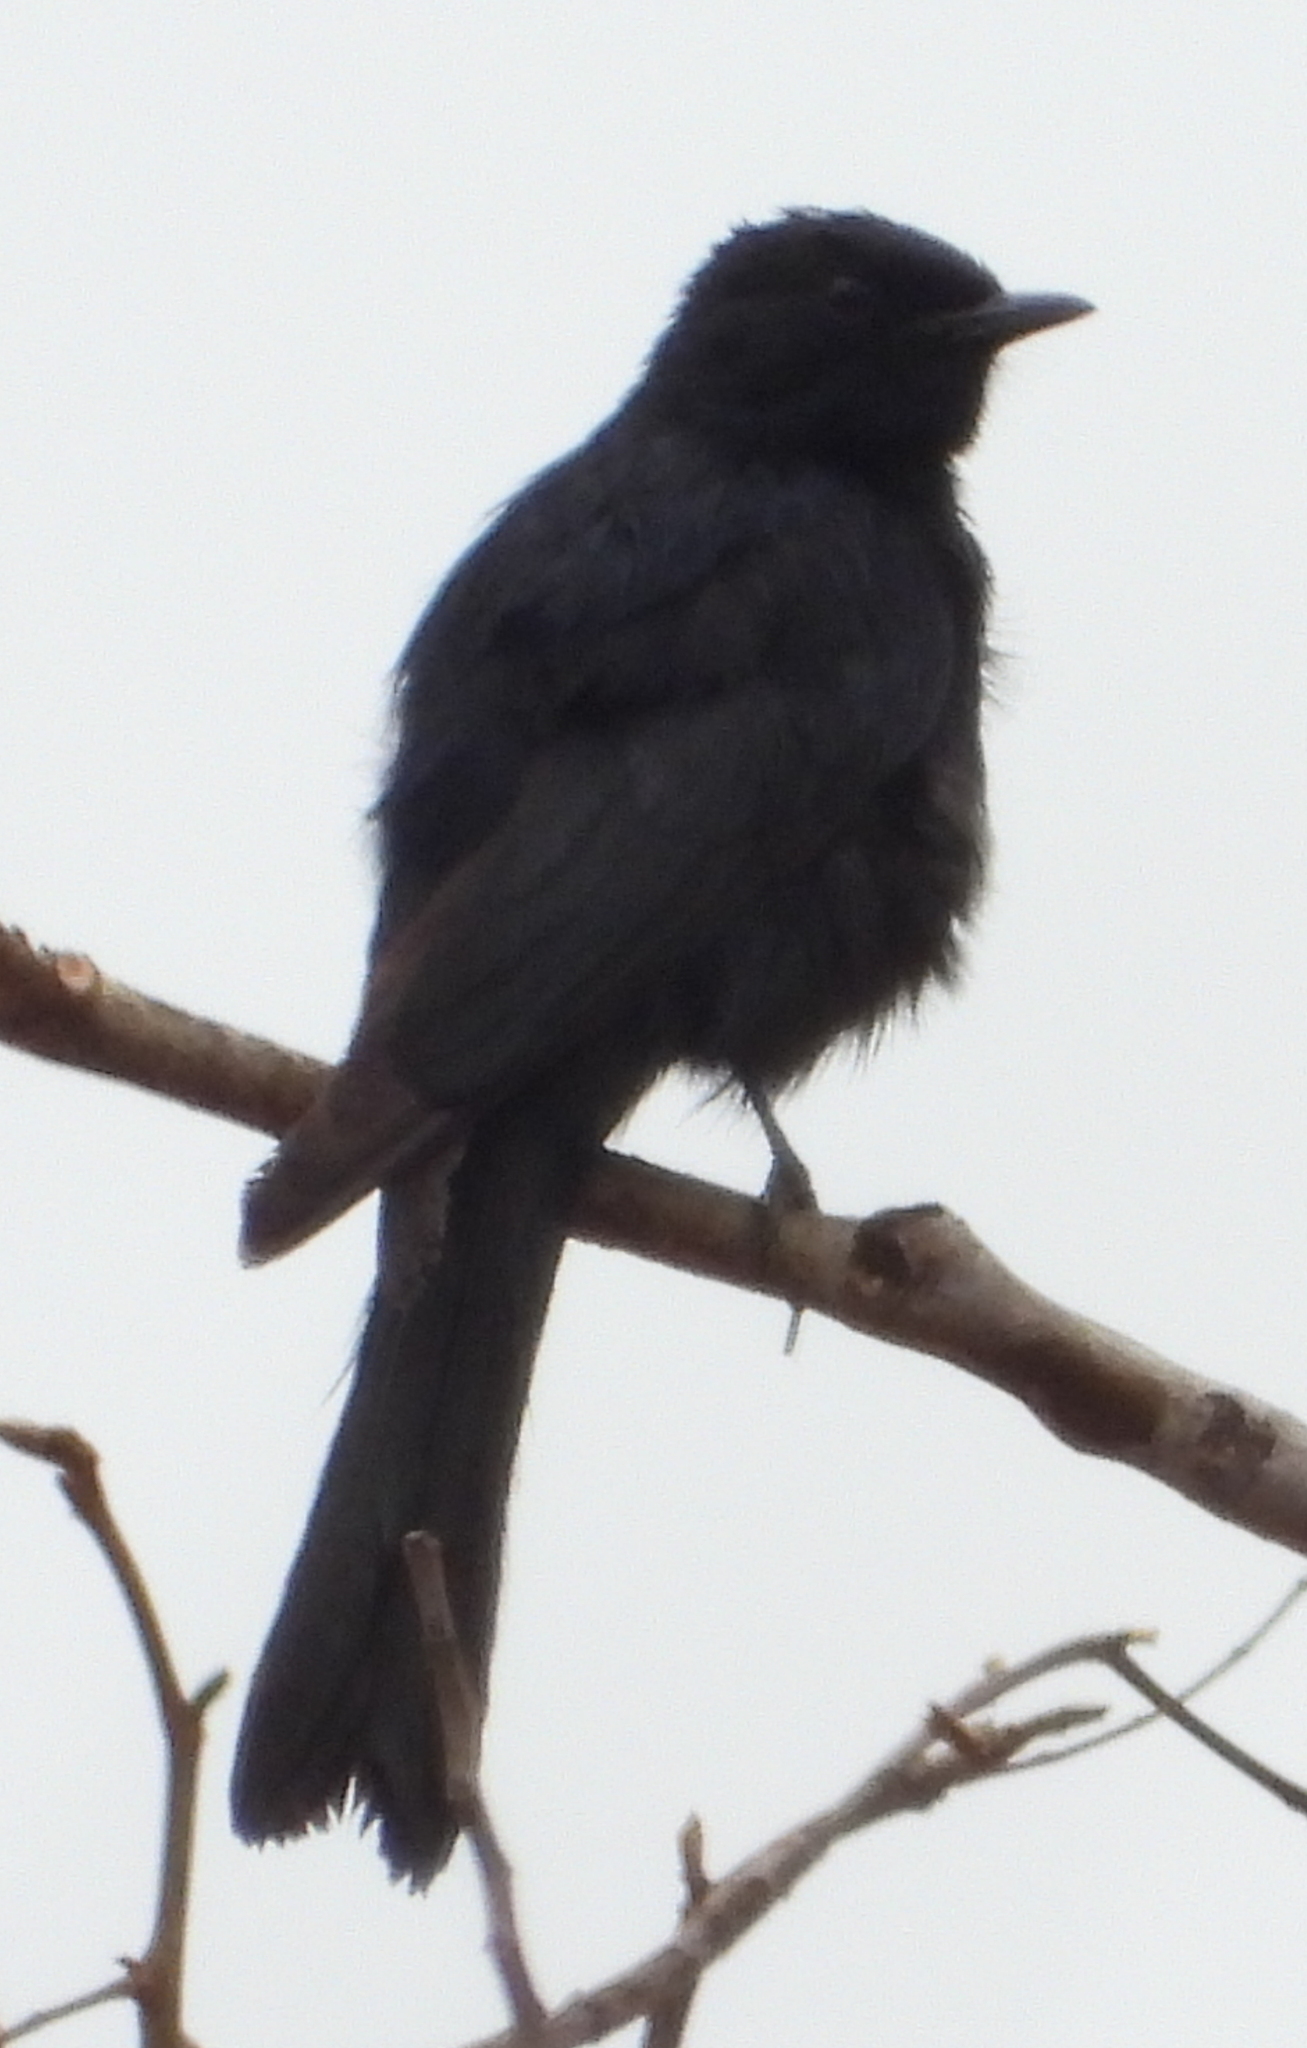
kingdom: Animalia
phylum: Chordata
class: Aves
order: Passeriformes
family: Muscicapidae
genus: Melaenornis
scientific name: Melaenornis pammelaina
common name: Southern black flycatcher
